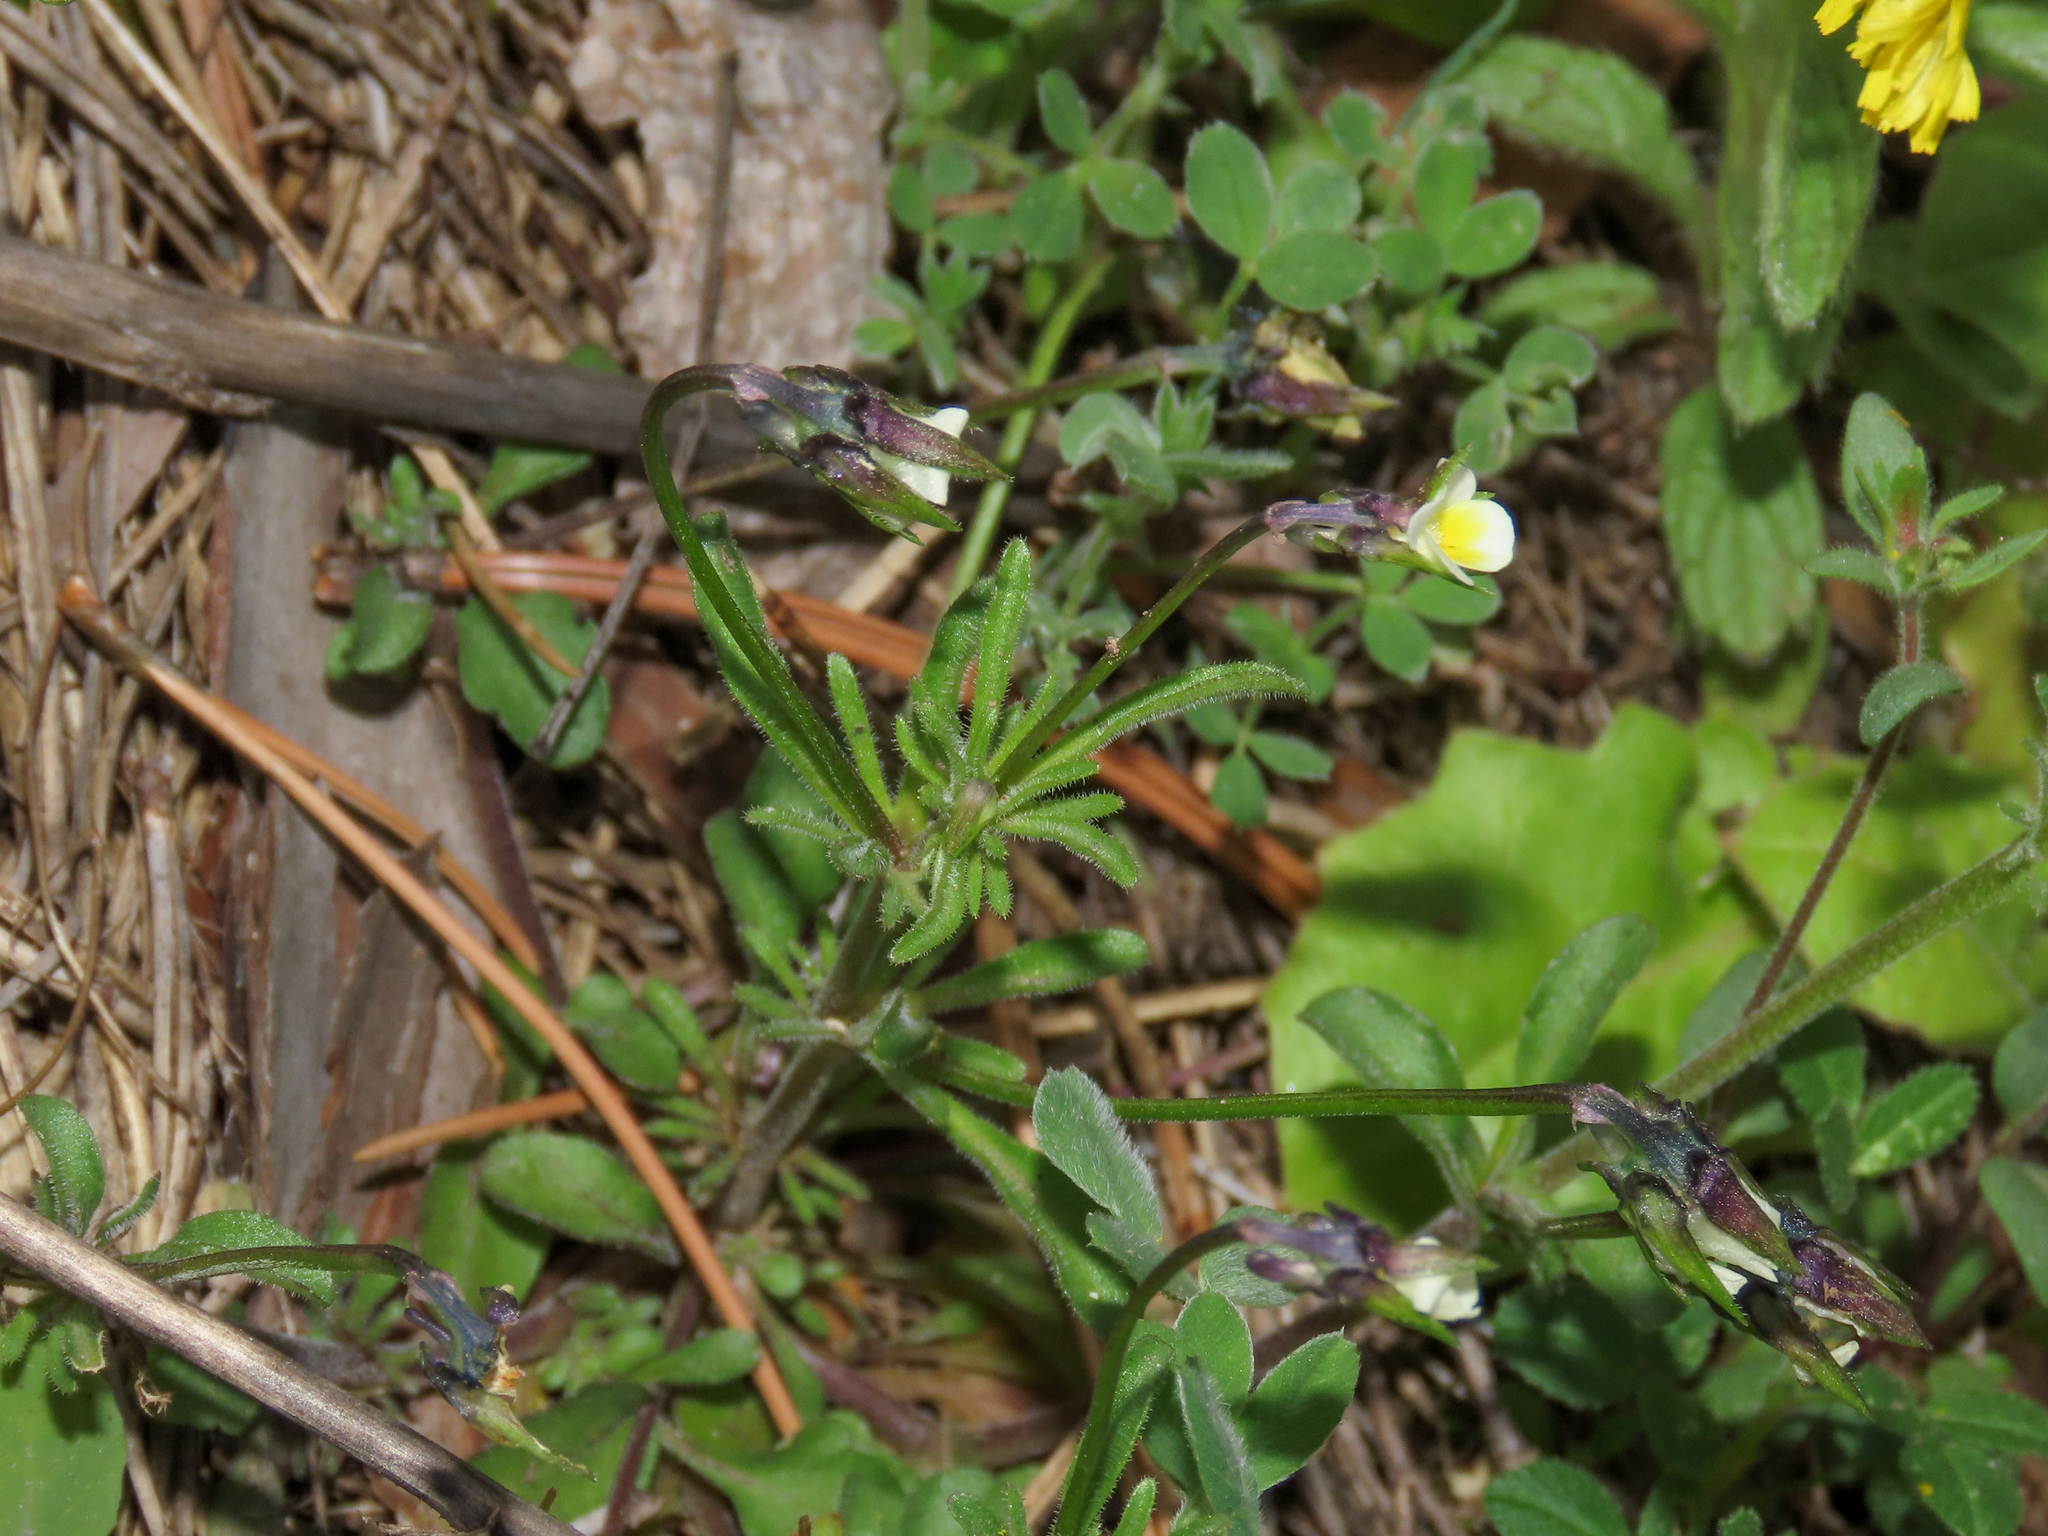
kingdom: Plantae
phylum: Tracheophyta
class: Magnoliopsida
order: Malpighiales
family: Violaceae
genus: Viola
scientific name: Viola kitaibeliana
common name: Dwarf pansy
